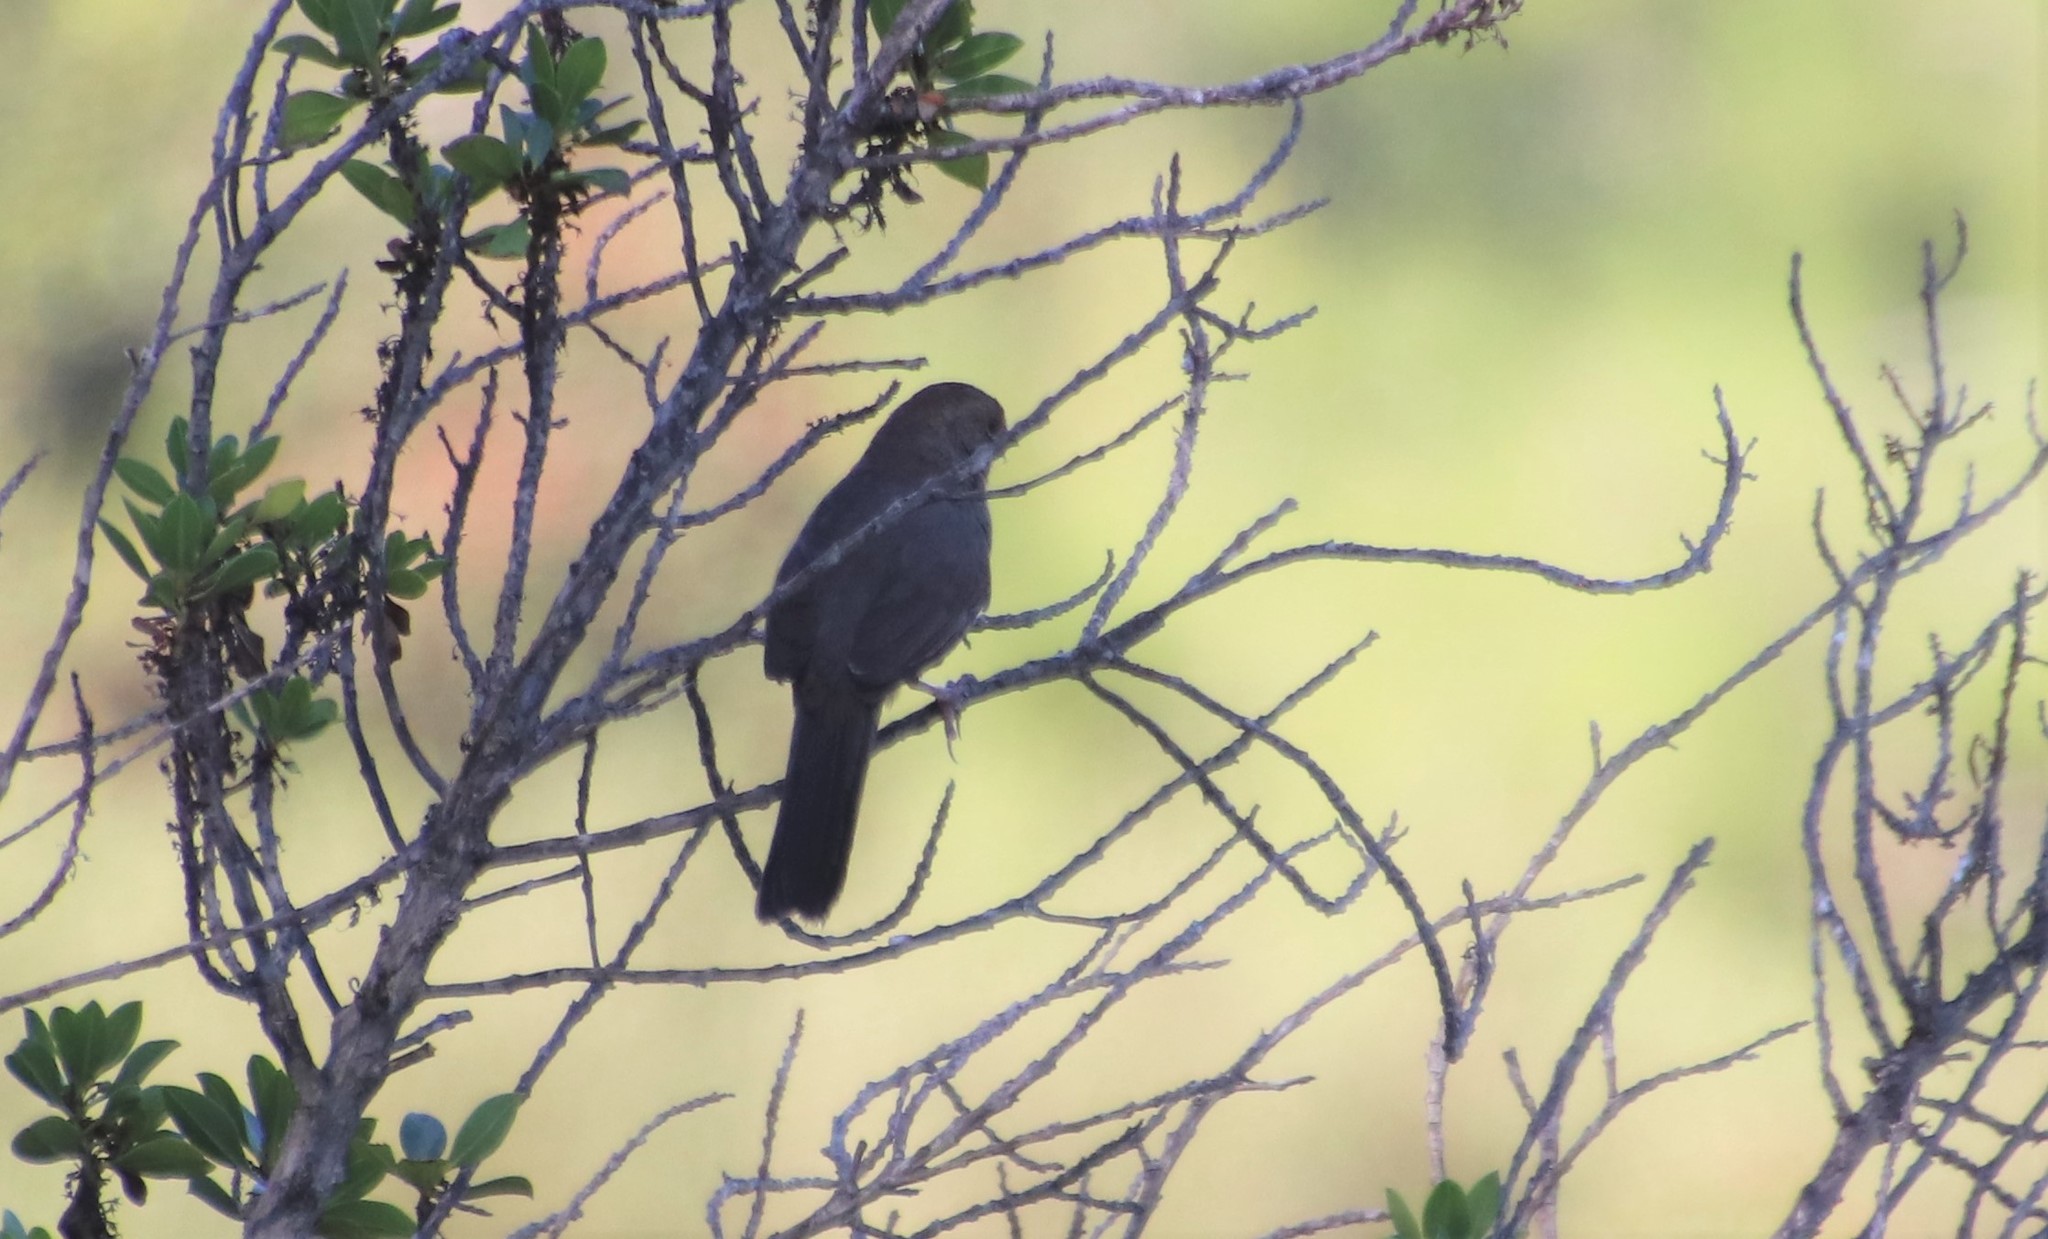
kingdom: Animalia
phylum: Chordata
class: Aves
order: Passeriformes
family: Passerellidae
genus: Melozone
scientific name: Melozone crissalis
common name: California towhee
